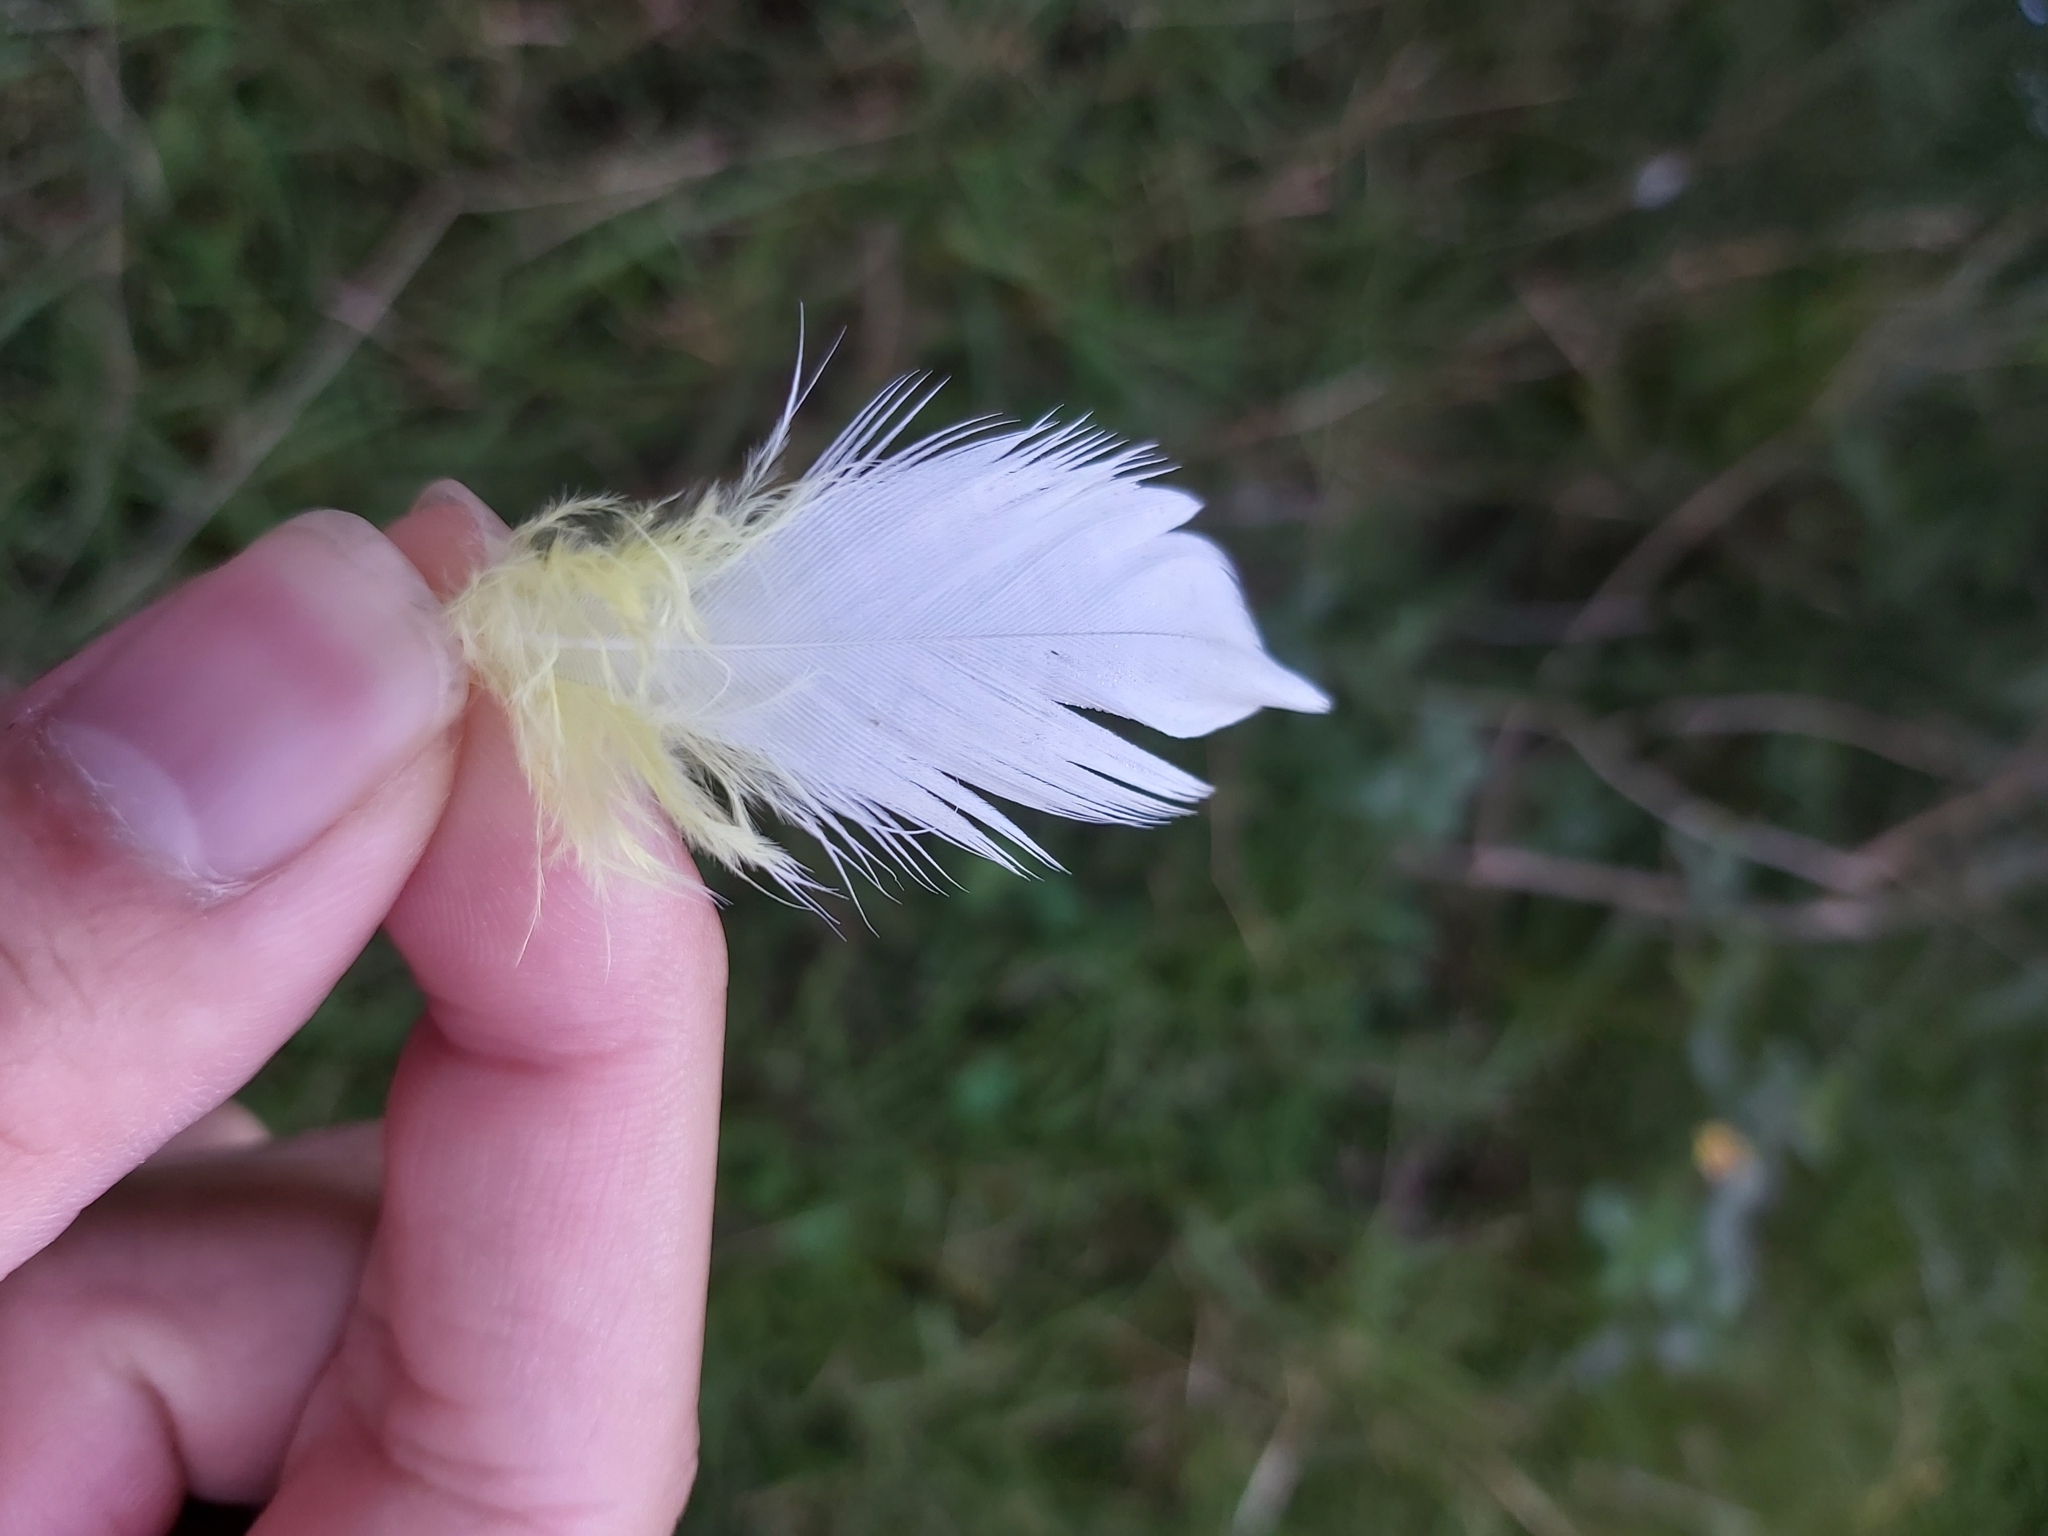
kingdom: Animalia
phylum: Chordata
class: Aves
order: Psittaciformes
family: Psittacidae
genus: Cacatua
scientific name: Cacatua galerita
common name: Sulphur-crested cockatoo
